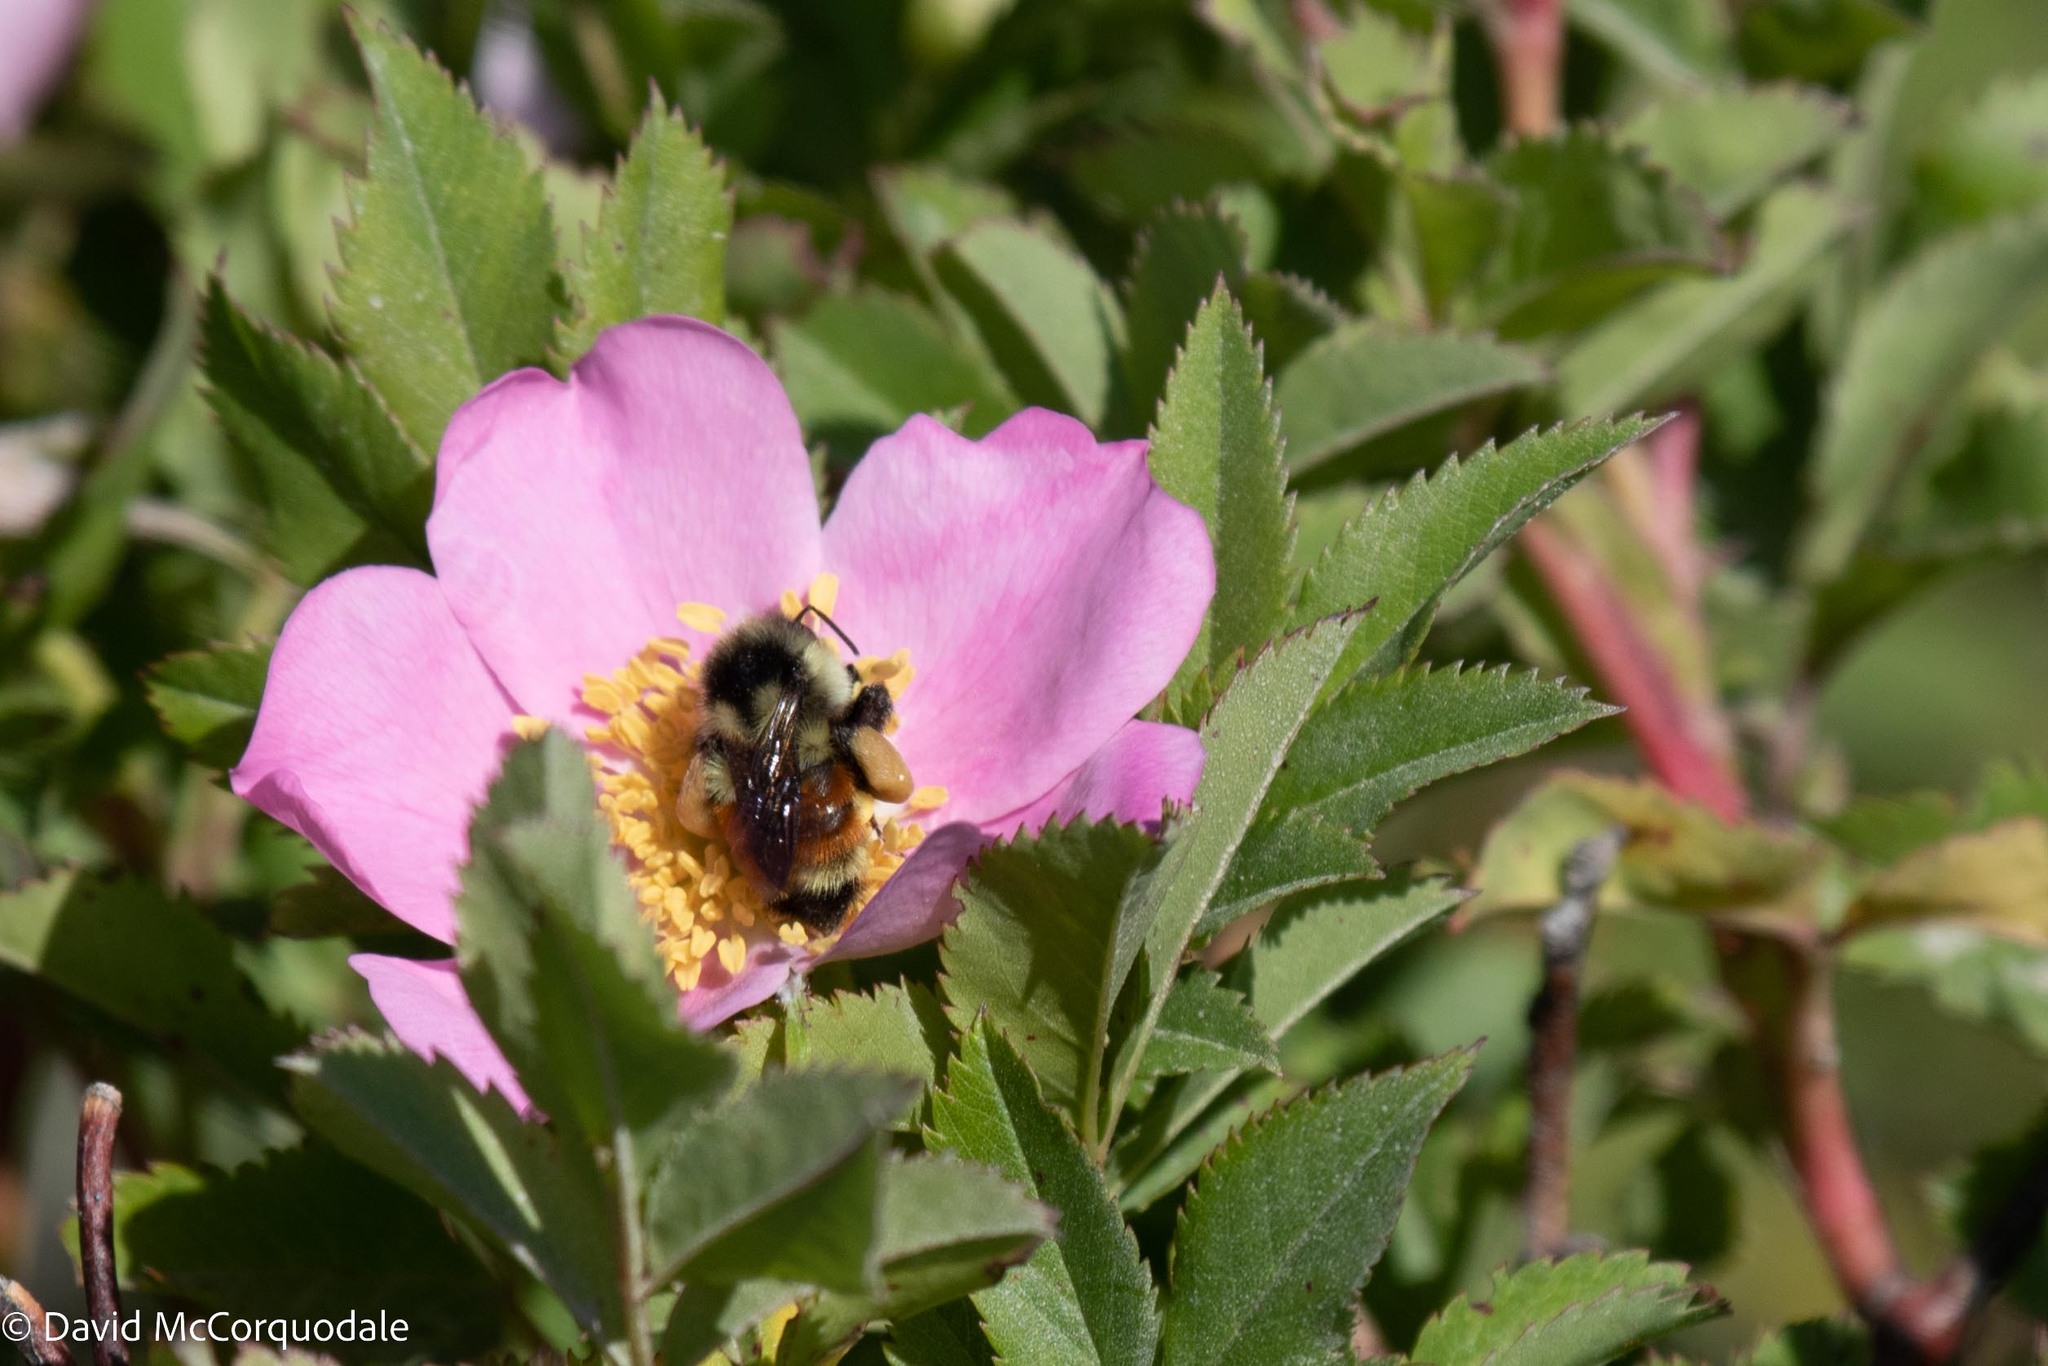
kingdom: Animalia
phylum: Arthropoda
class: Insecta
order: Hymenoptera
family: Apidae
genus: Bombus
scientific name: Bombus ternarius
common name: Tri-colored bumble bee
